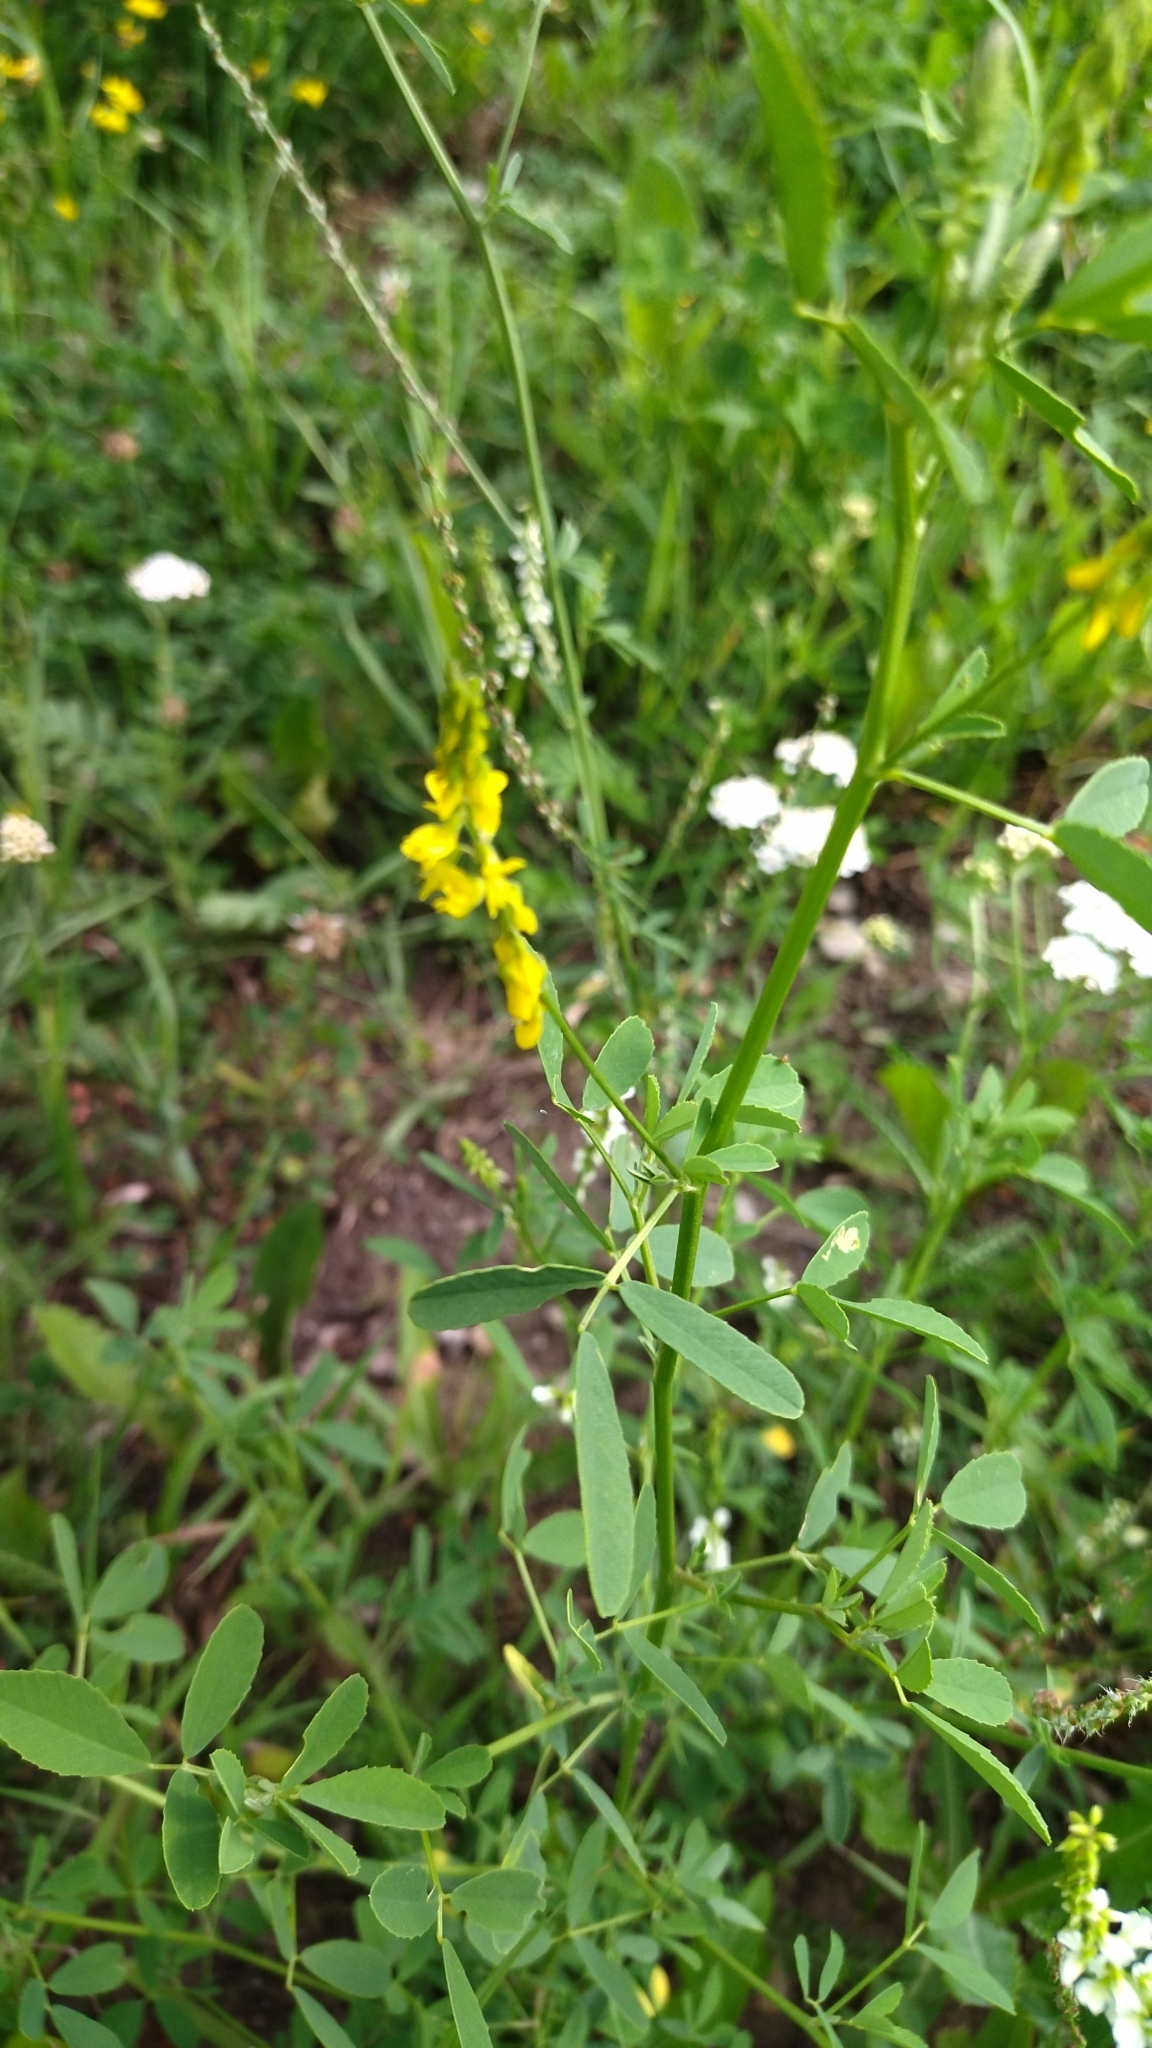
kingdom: Plantae
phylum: Tracheophyta
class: Magnoliopsida
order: Fabales
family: Fabaceae
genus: Melilotus
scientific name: Melilotus officinalis
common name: Sweetclover
